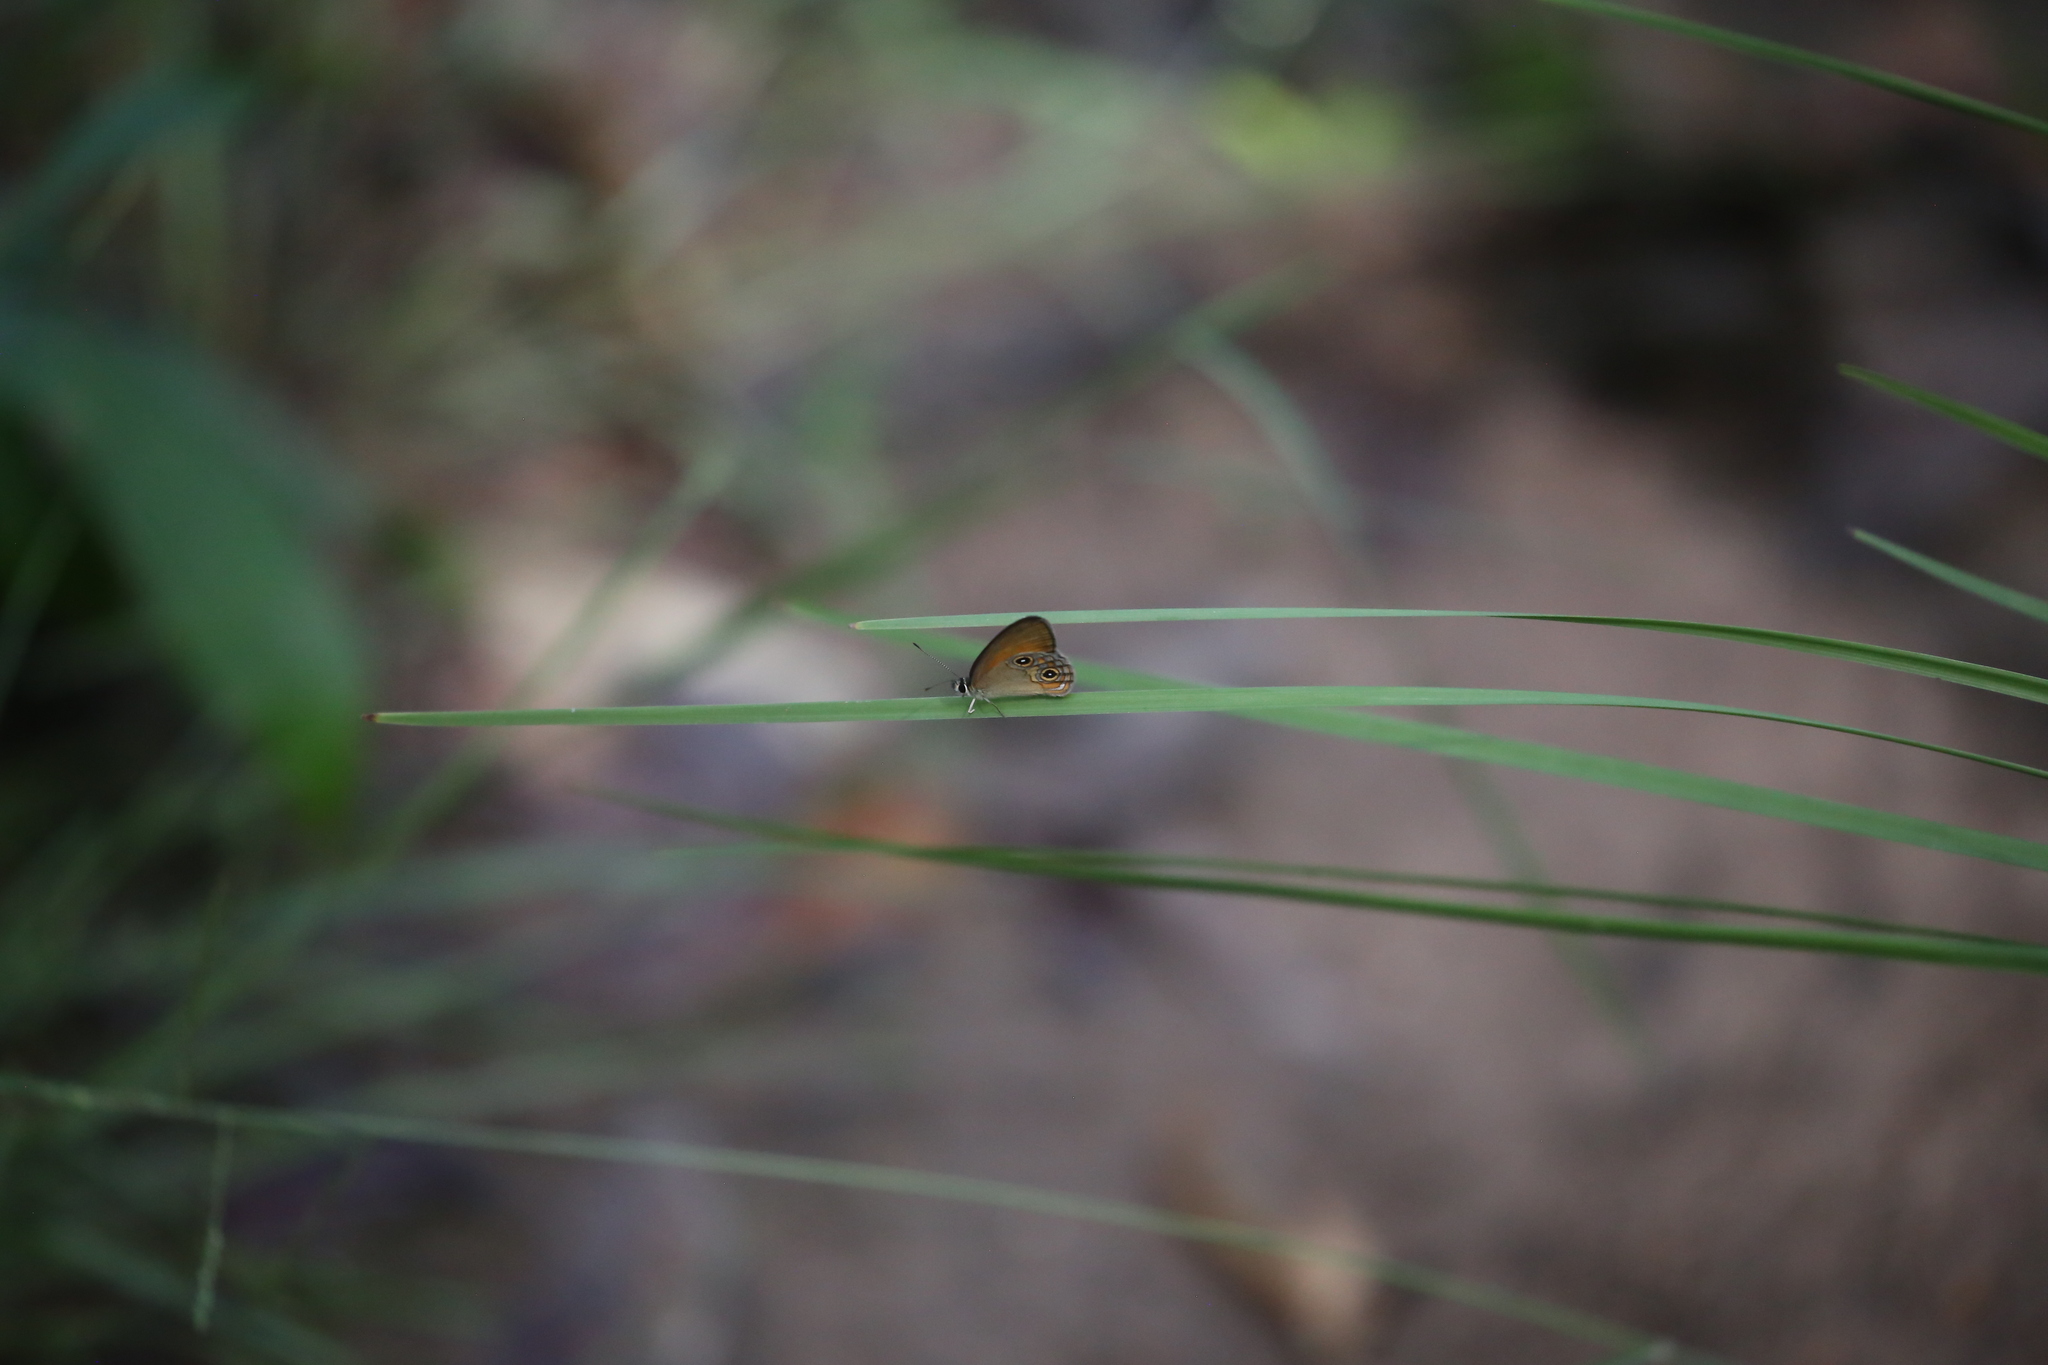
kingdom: Animalia
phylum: Arthropoda
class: Insecta
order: Lepidoptera
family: Nymphalidae
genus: Hypocysta
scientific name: Hypocysta adiante
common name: Orange ringlet
